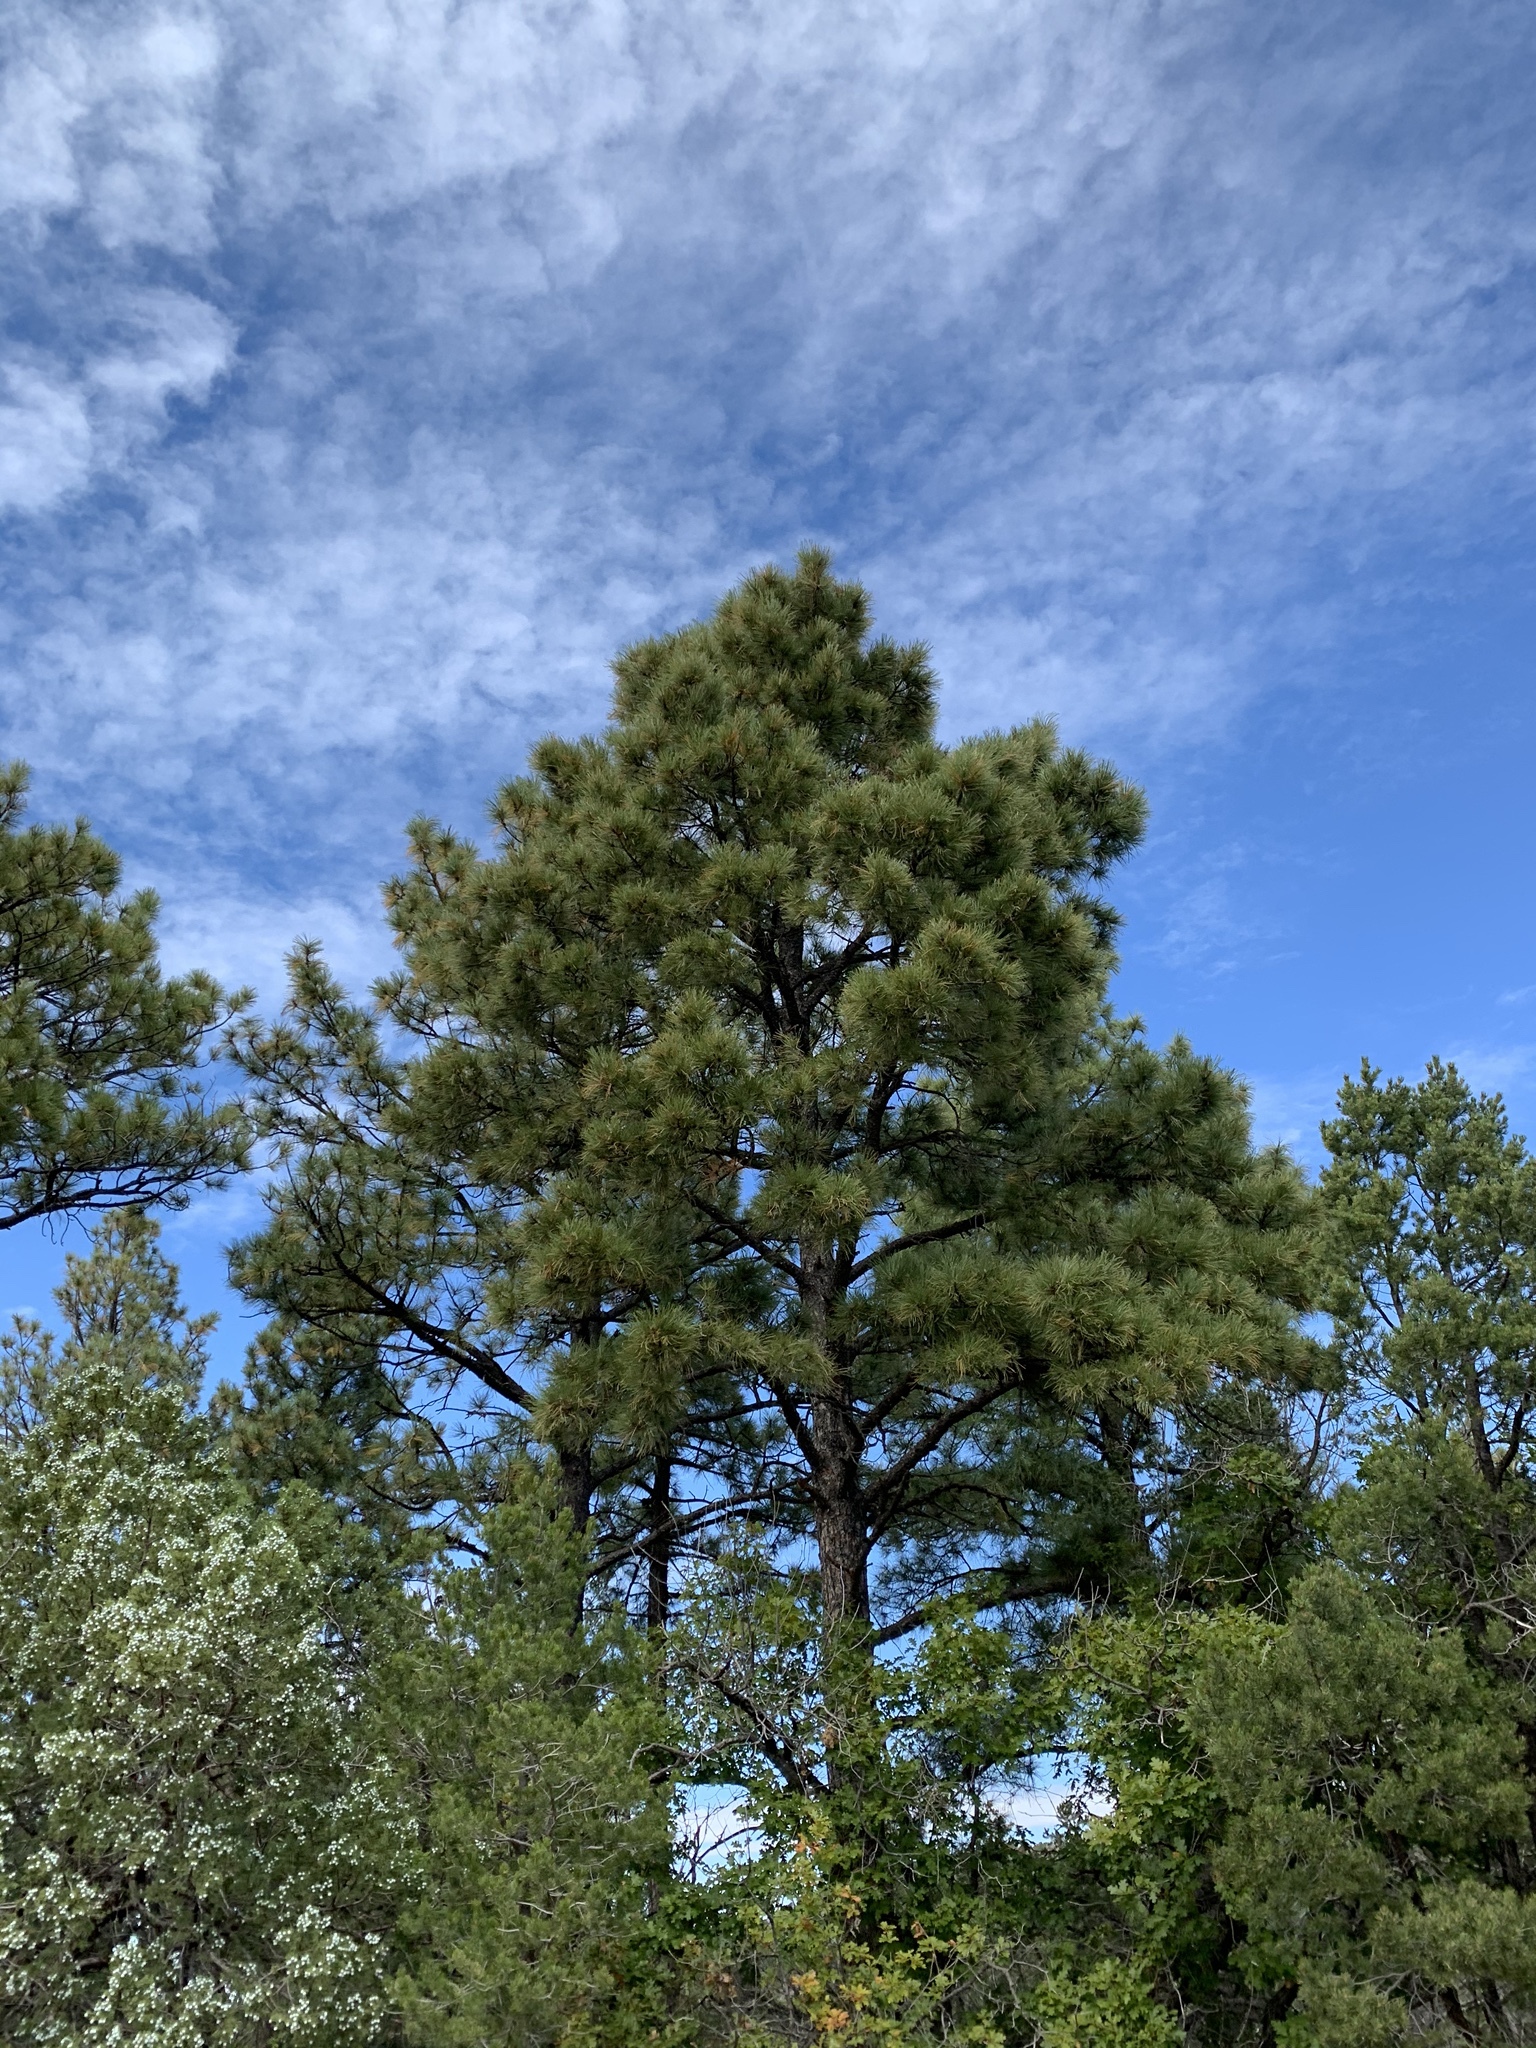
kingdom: Plantae
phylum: Tracheophyta
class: Pinopsida
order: Pinales
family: Pinaceae
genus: Pinus
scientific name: Pinus ponderosa
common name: Western yellow-pine
